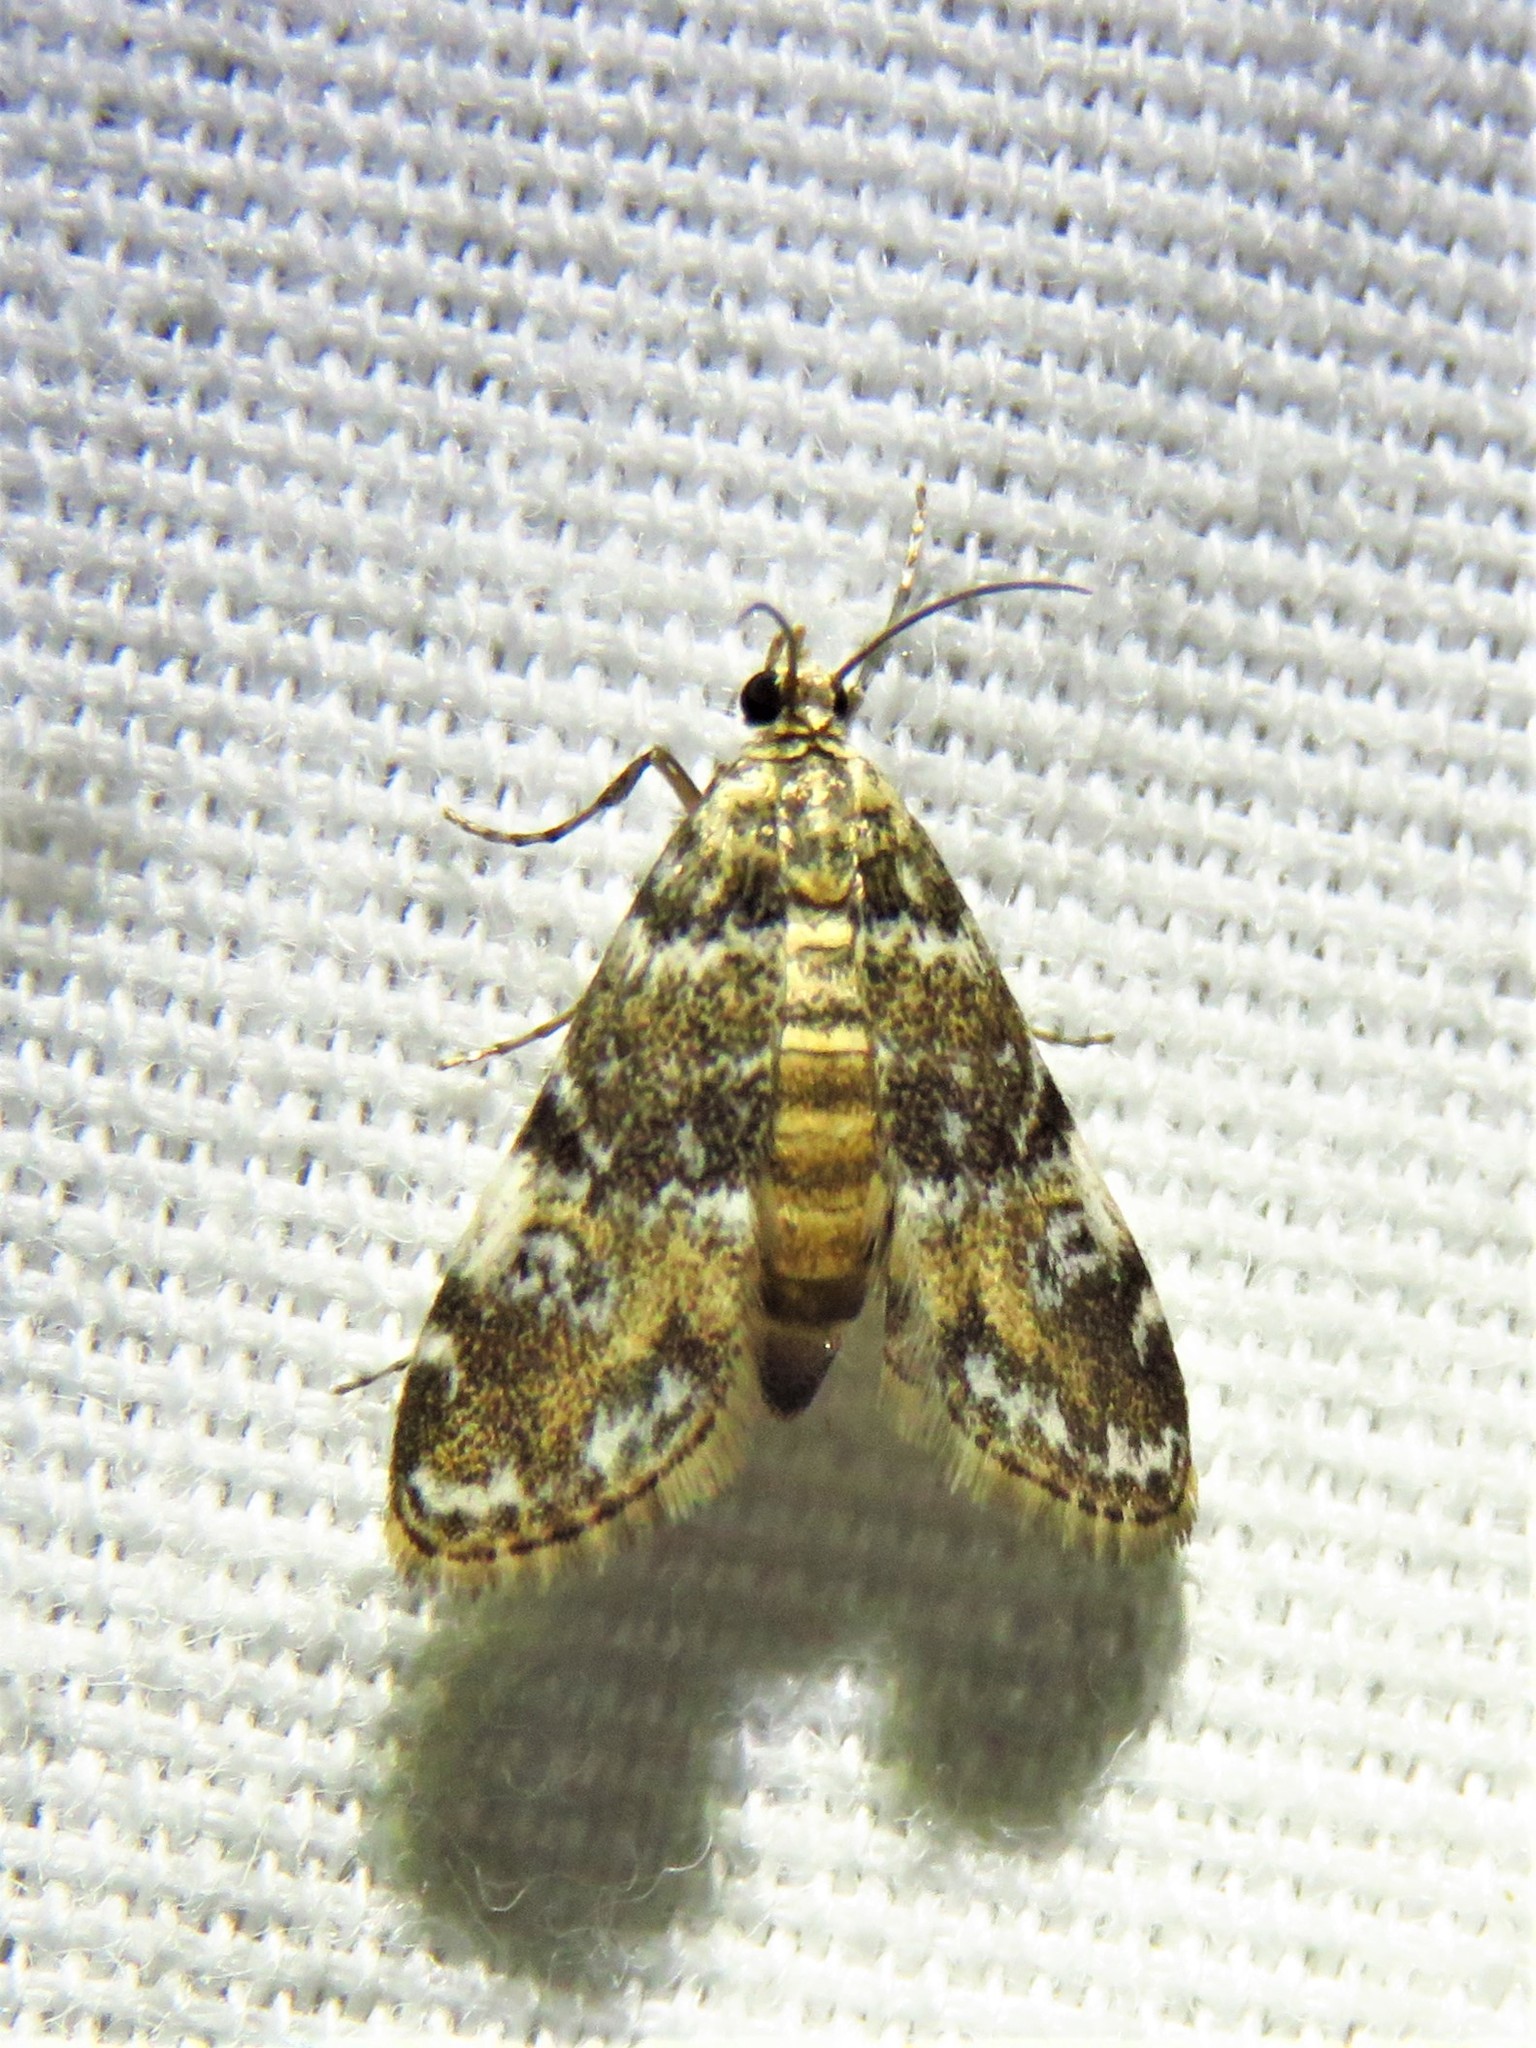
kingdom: Animalia
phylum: Arthropoda
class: Insecta
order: Lepidoptera
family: Crambidae
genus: Elophila
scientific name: Elophila obliteralis
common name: Waterlily leafcutter moth
